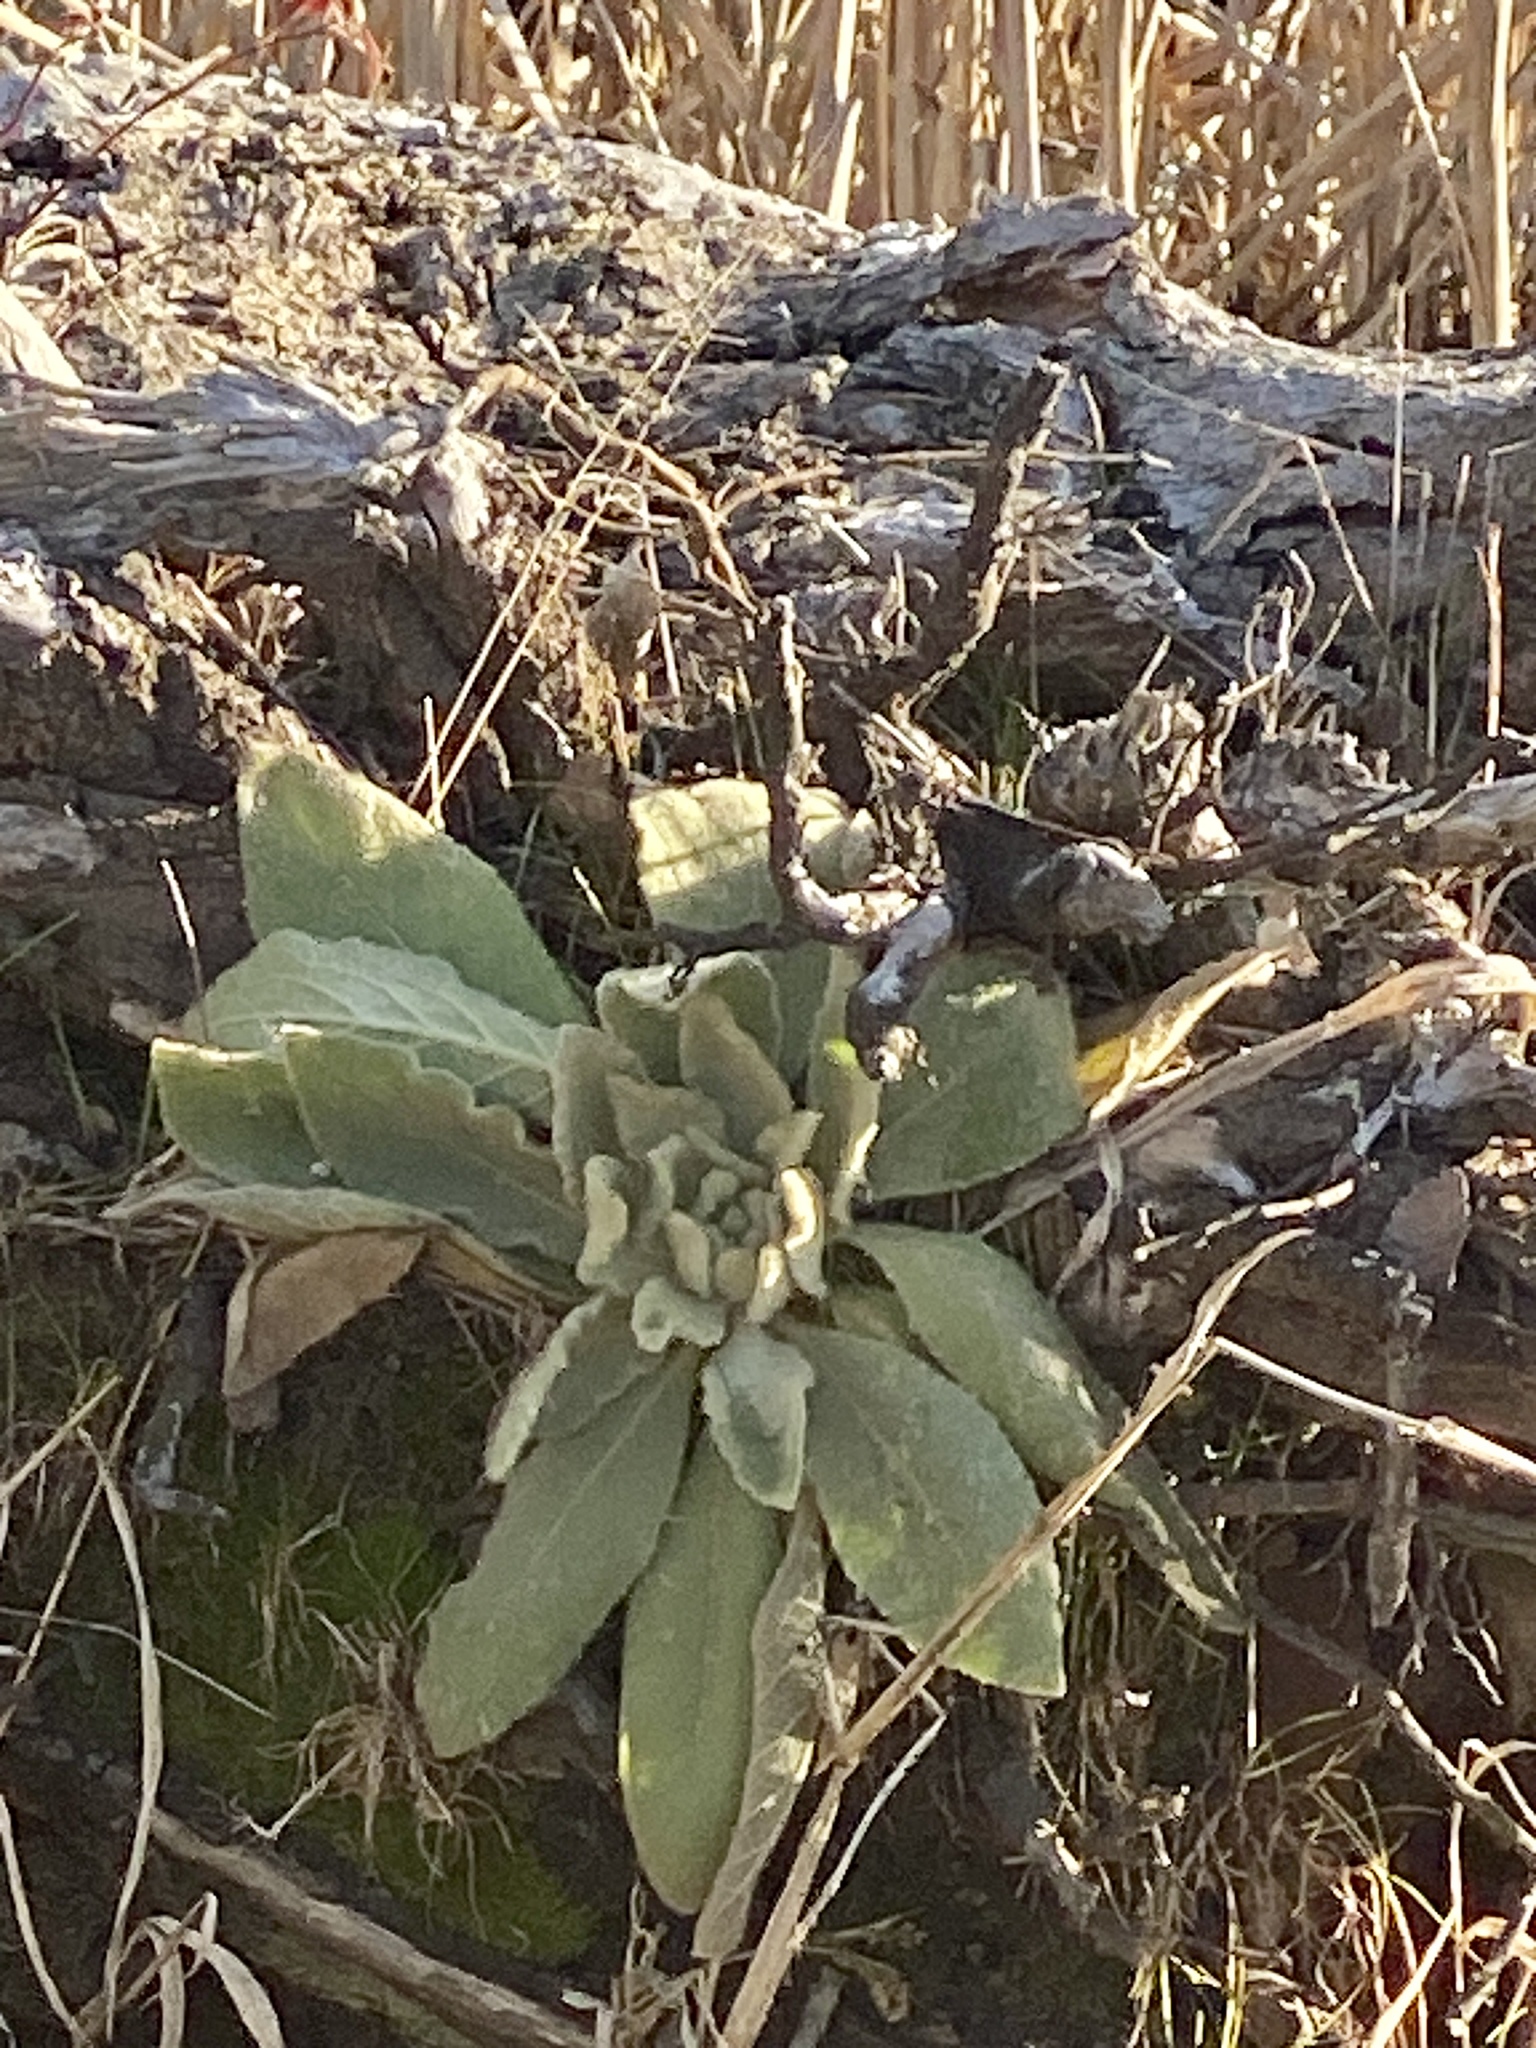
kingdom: Plantae
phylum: Tracheophyta
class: Magnoliopsida
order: Lamiales
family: Scrophulariaceae
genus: Verbascum
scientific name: Verbascum thapsus
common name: Common mullein
